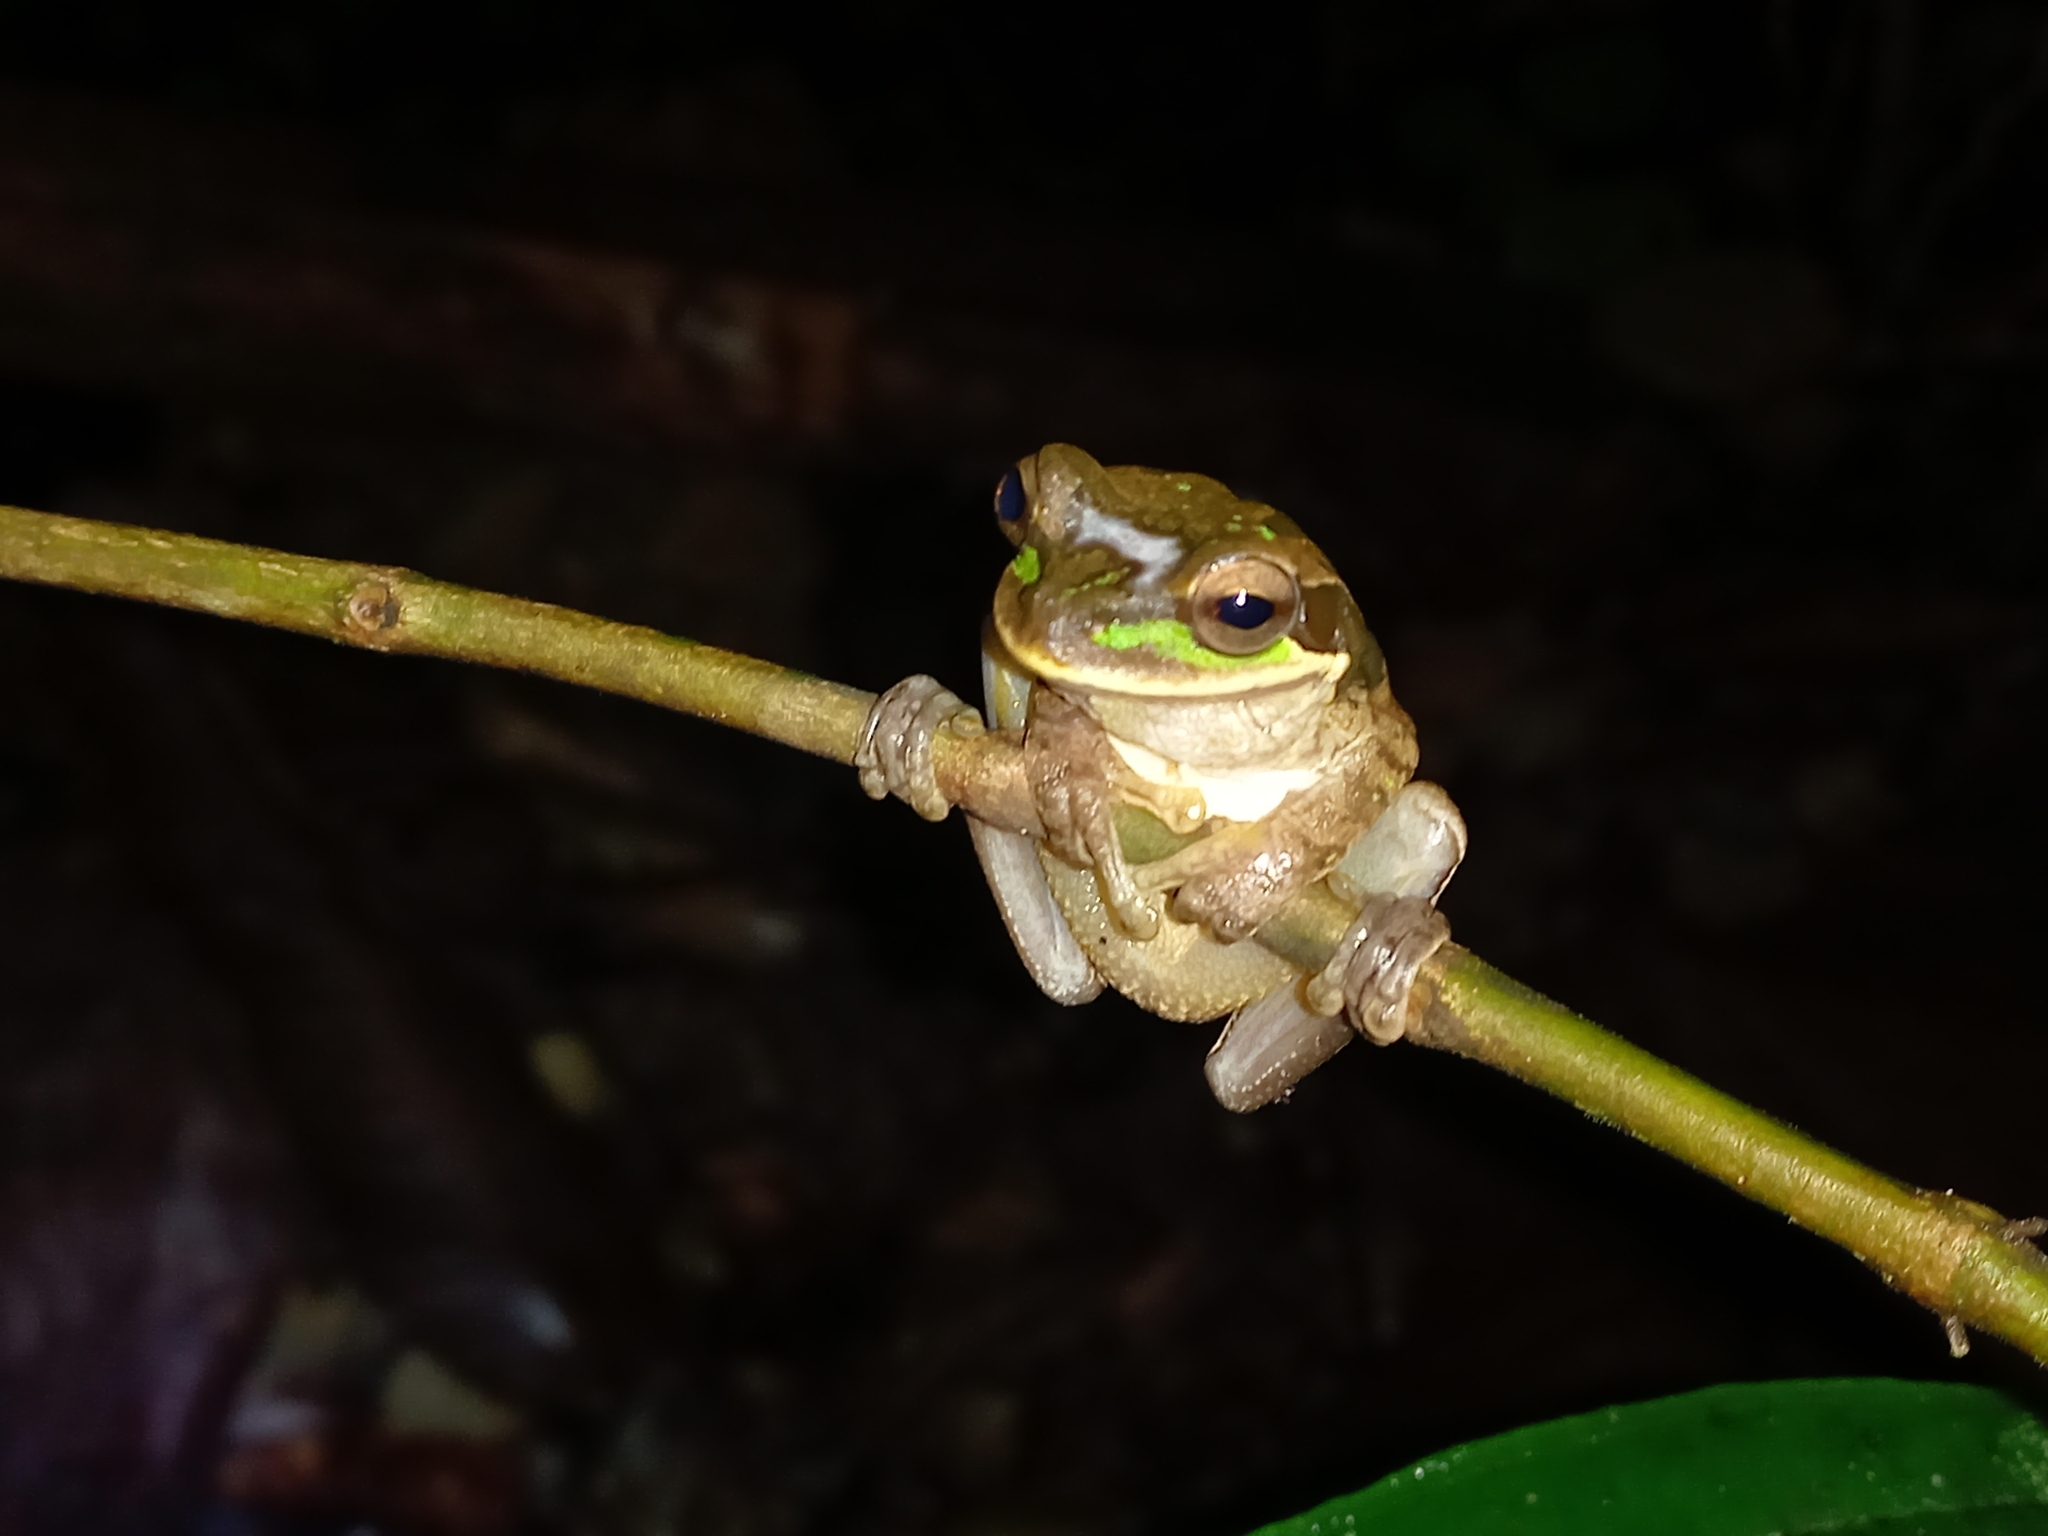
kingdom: Animalia
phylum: Chordata
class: Amphibia
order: Anura
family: Hylidae
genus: Smilisca
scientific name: Smilisca phaeota
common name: Central american smilisca
